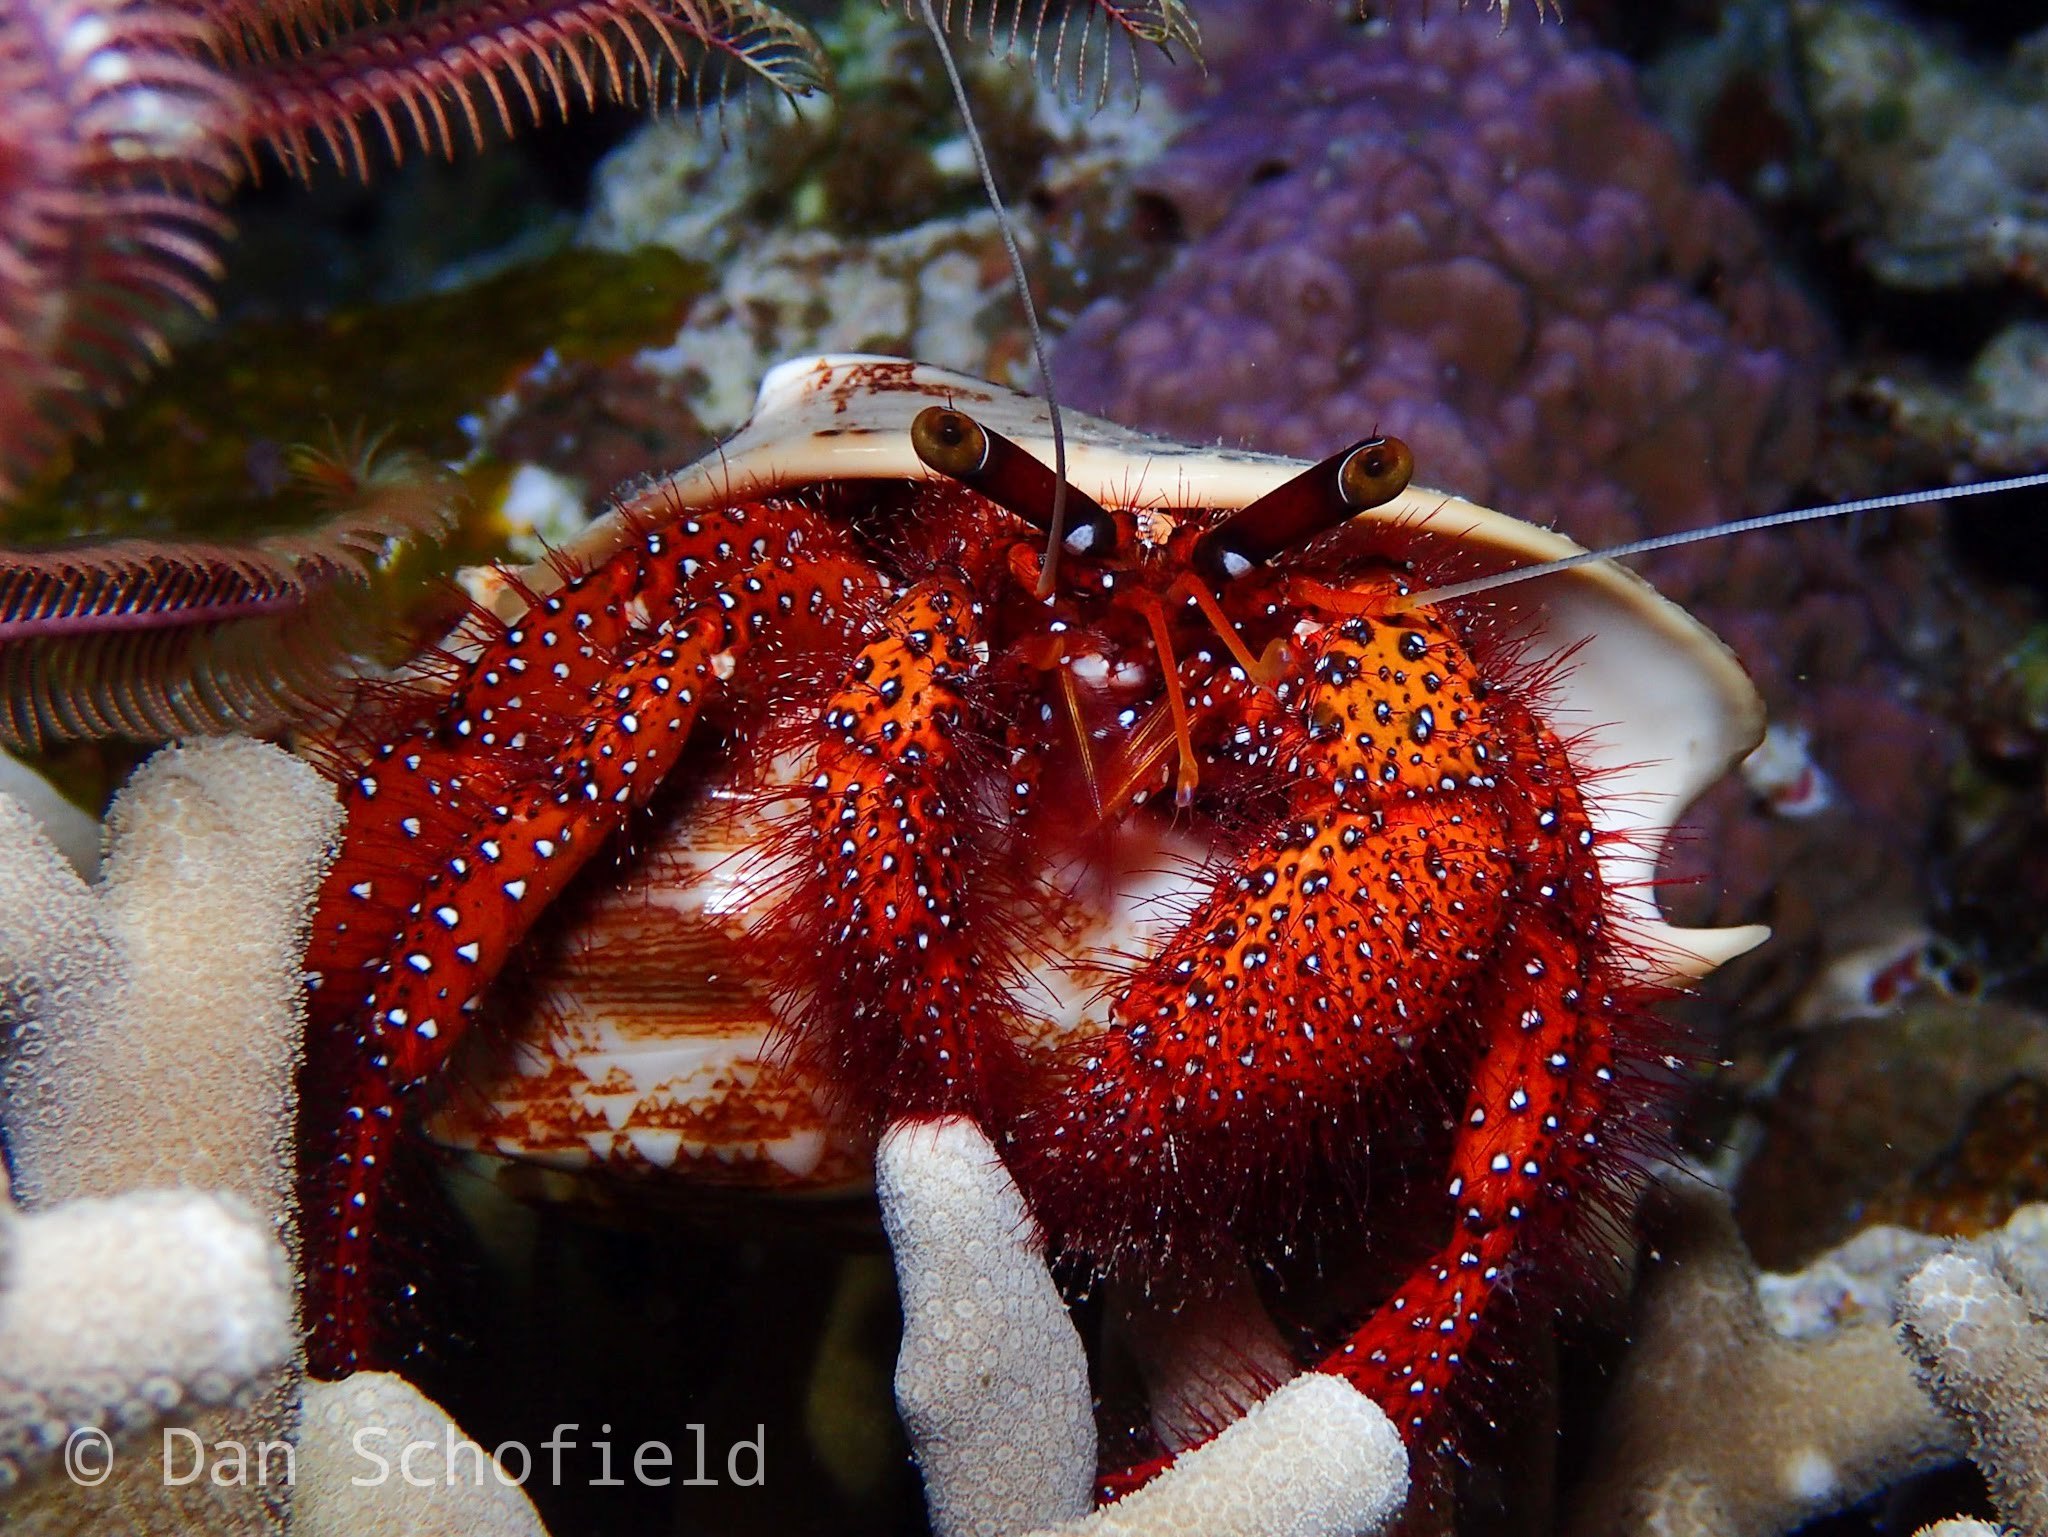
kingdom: Animalia
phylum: Arthropoda
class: Malacostraca
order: Decapoda
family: Diogenidae
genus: Dardanus
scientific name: Dardanus megistos
